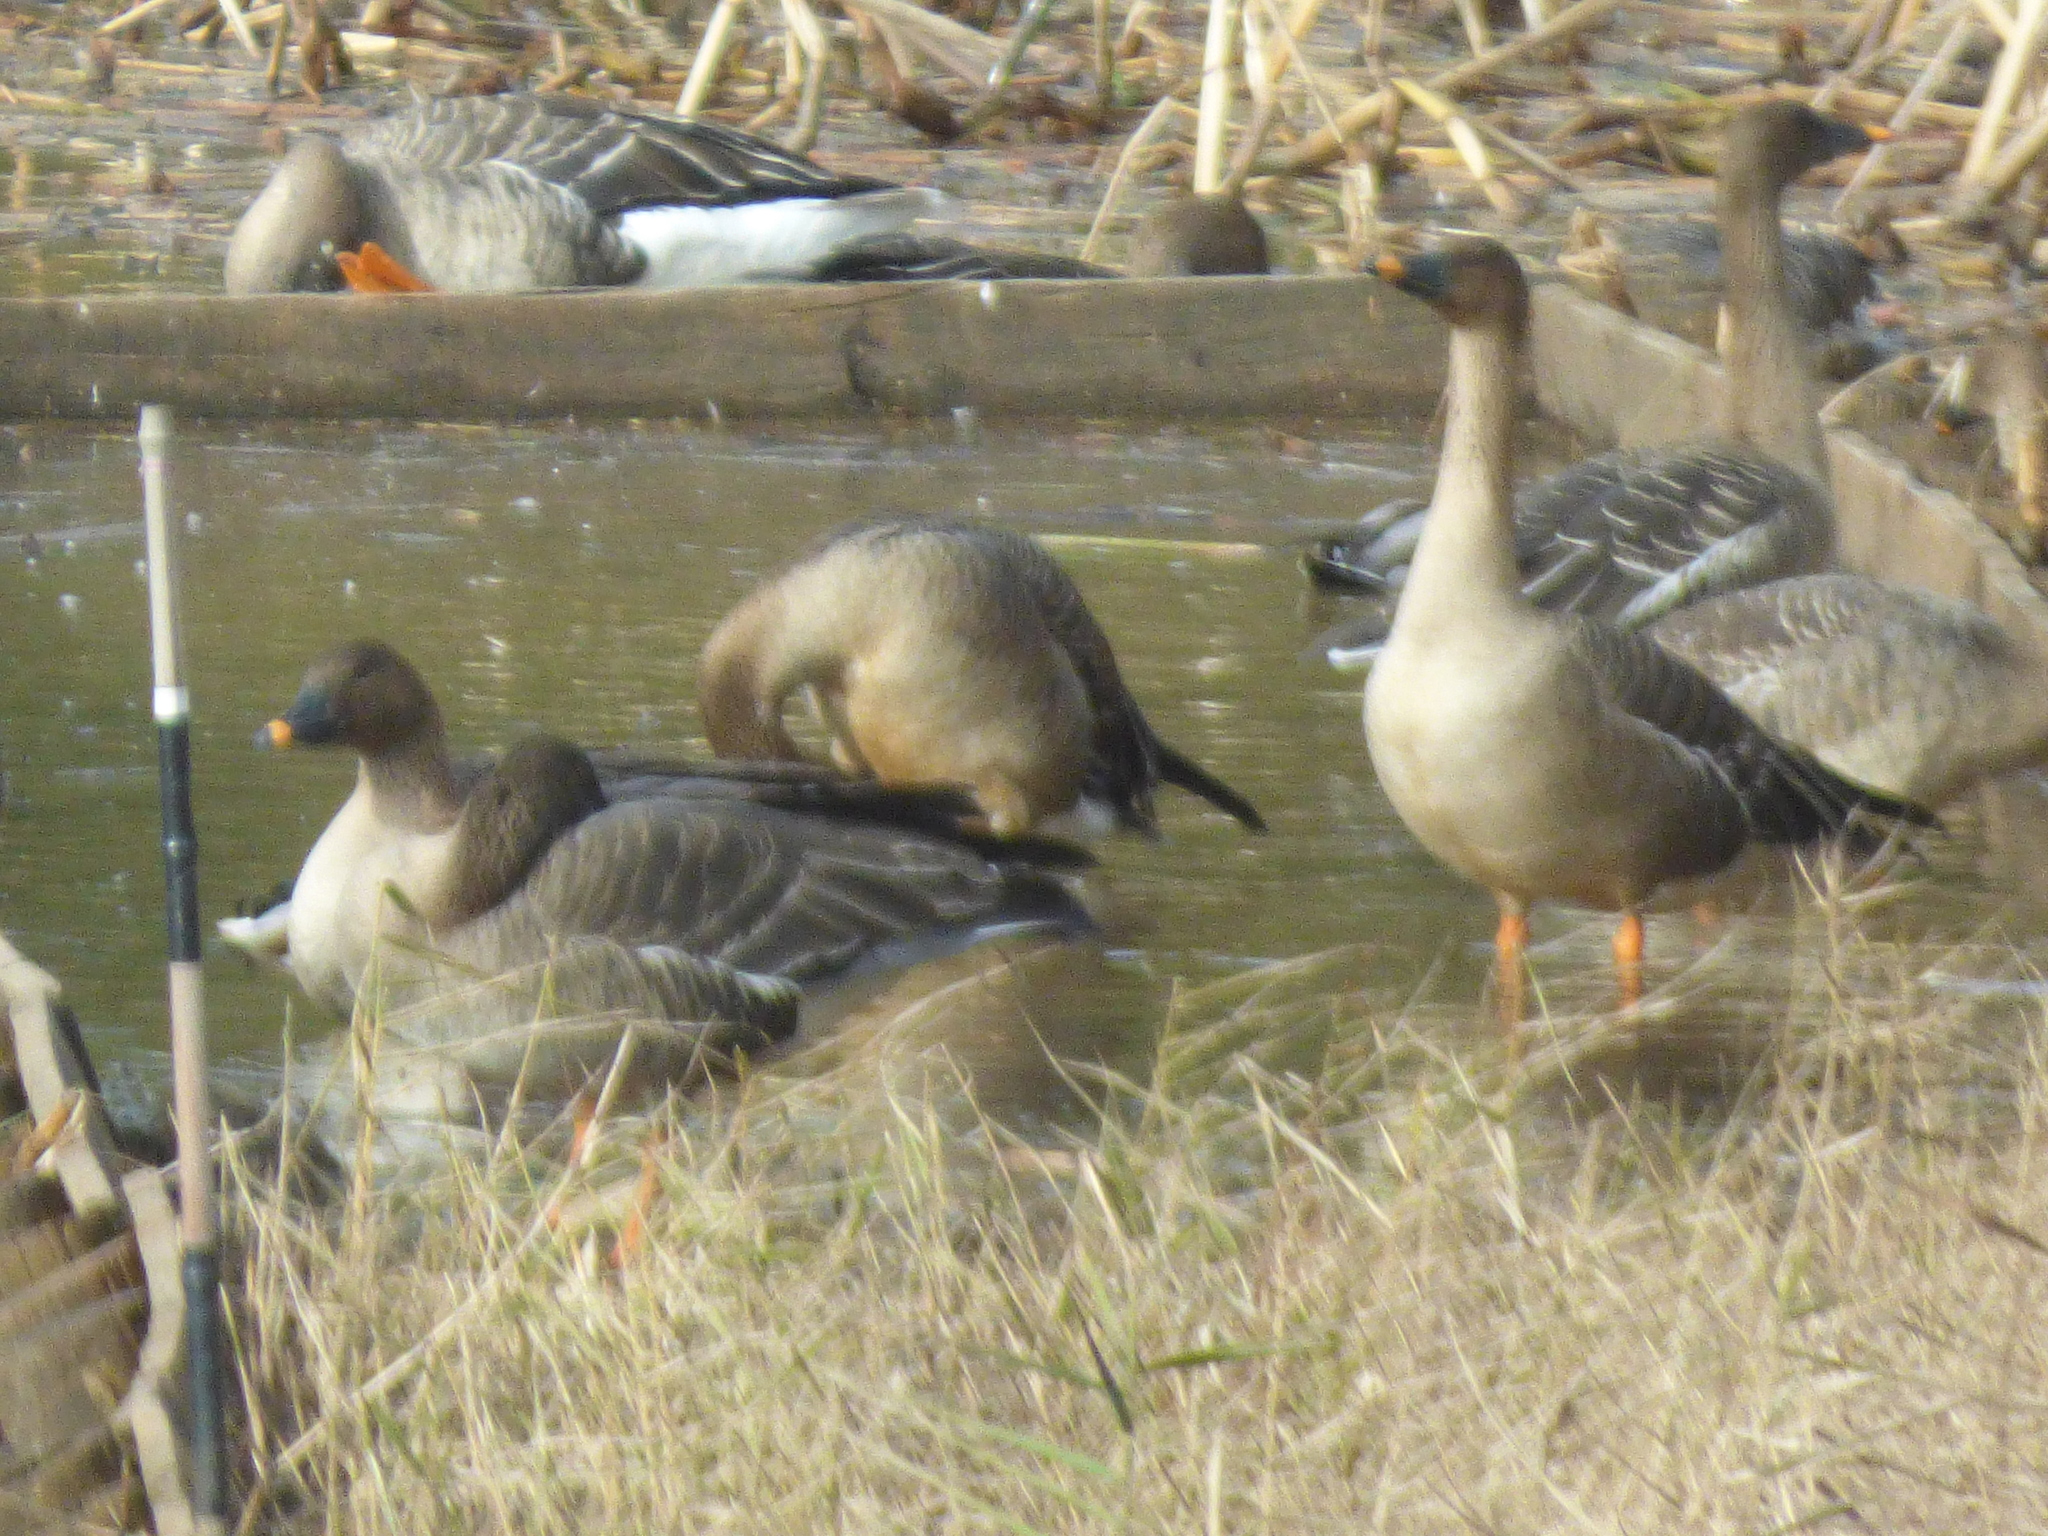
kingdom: Animalia
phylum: Chordata
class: Aves
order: Anseriformes
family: Anatidae
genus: Anser
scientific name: Anser fabalis
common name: Bean goose
